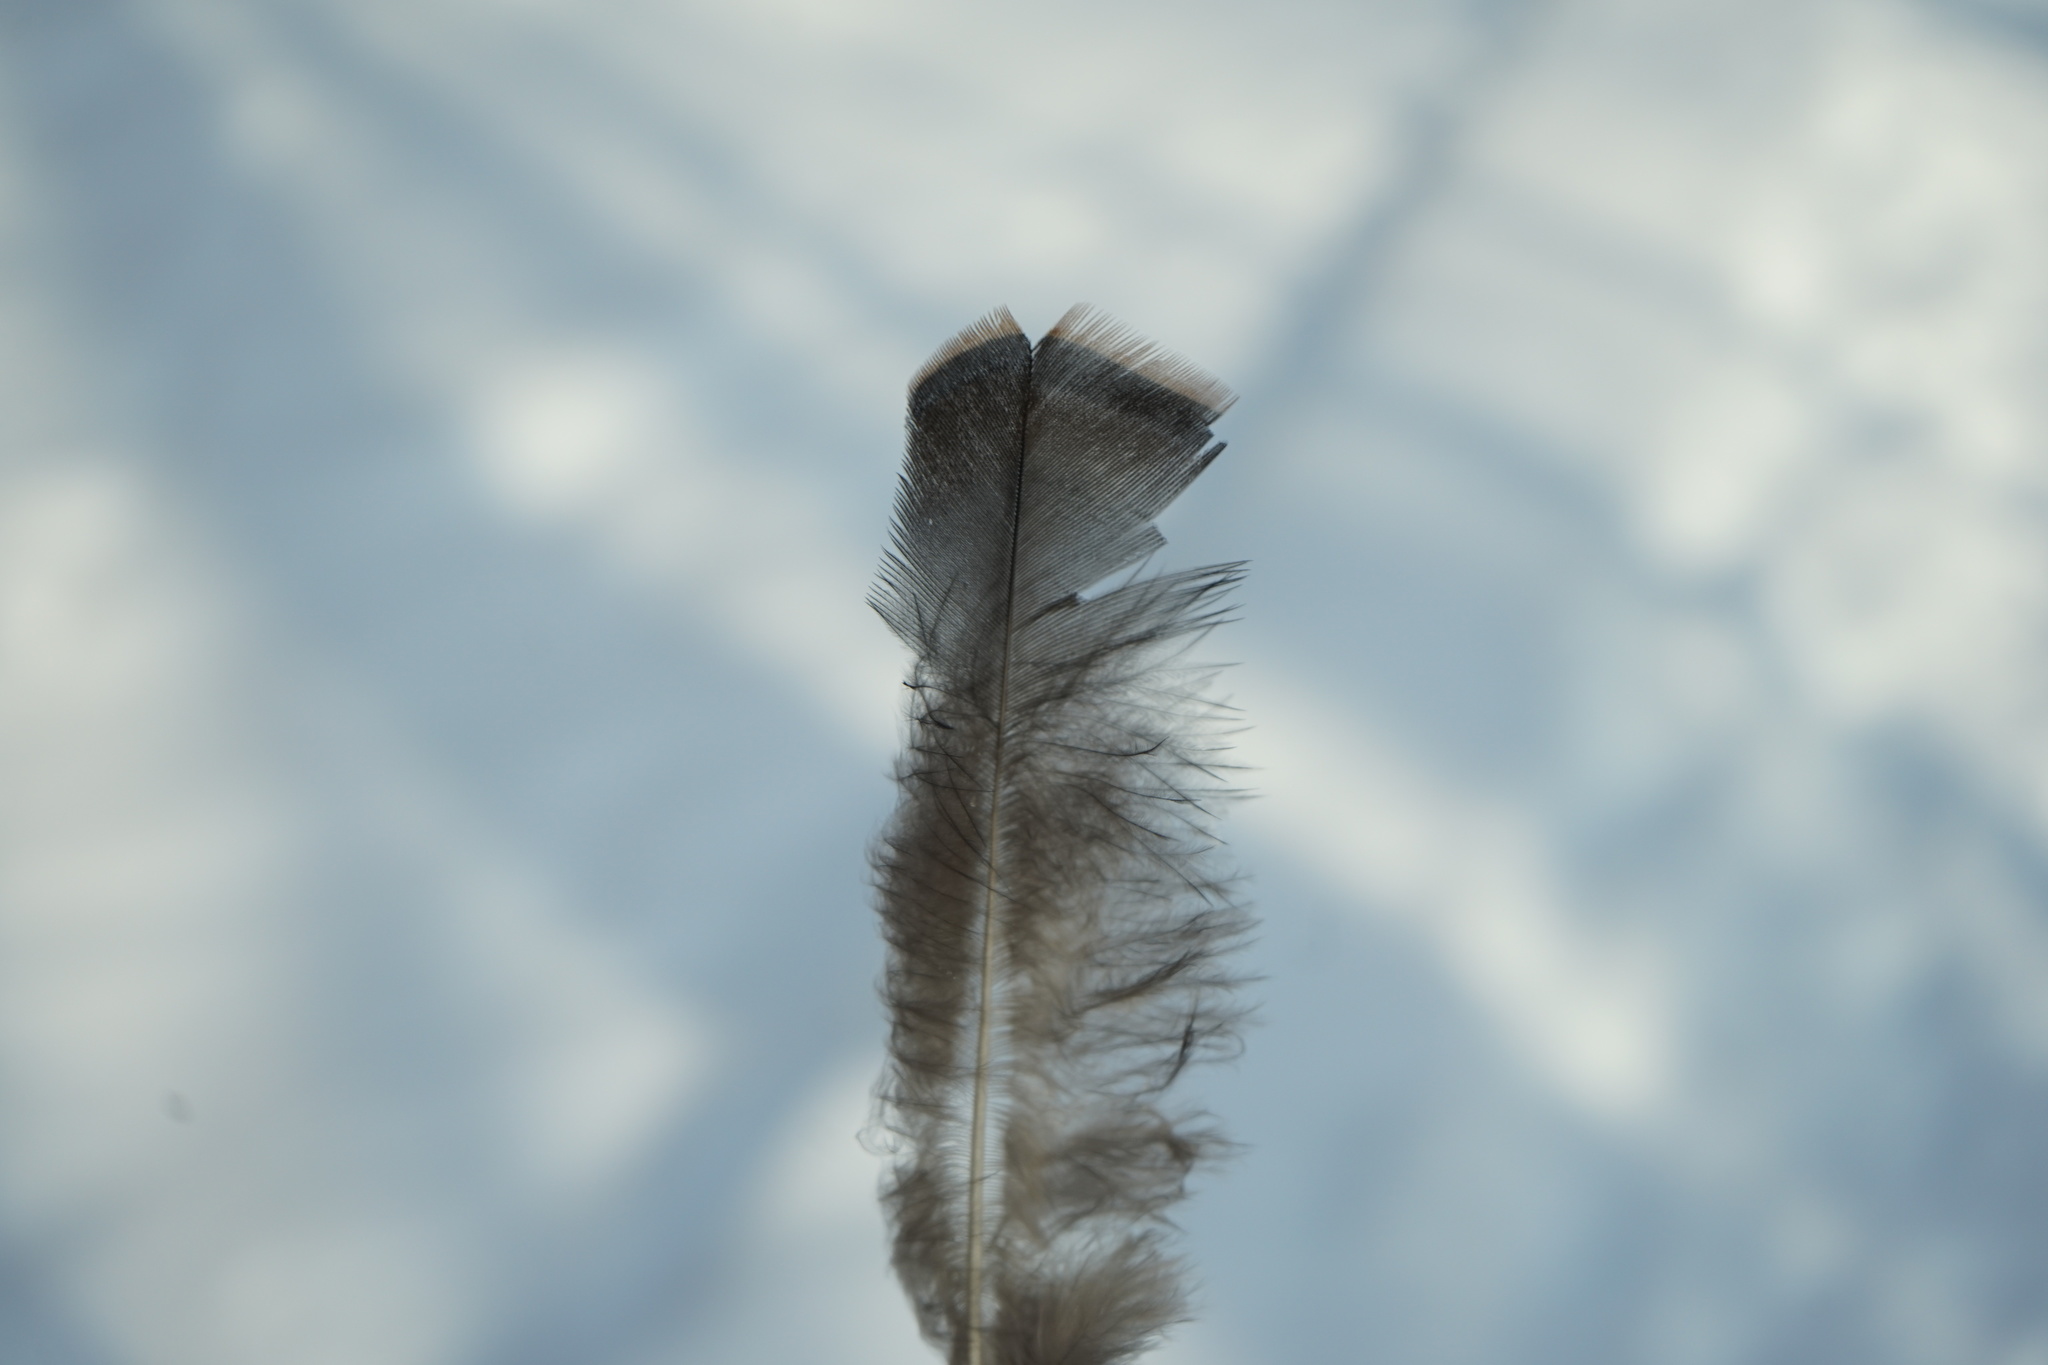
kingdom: Animalia
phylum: Chordata
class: Aves
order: Galliformes
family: Phasianidae
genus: Meleagris
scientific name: Meleagris gallopavo
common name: Wild turkey
